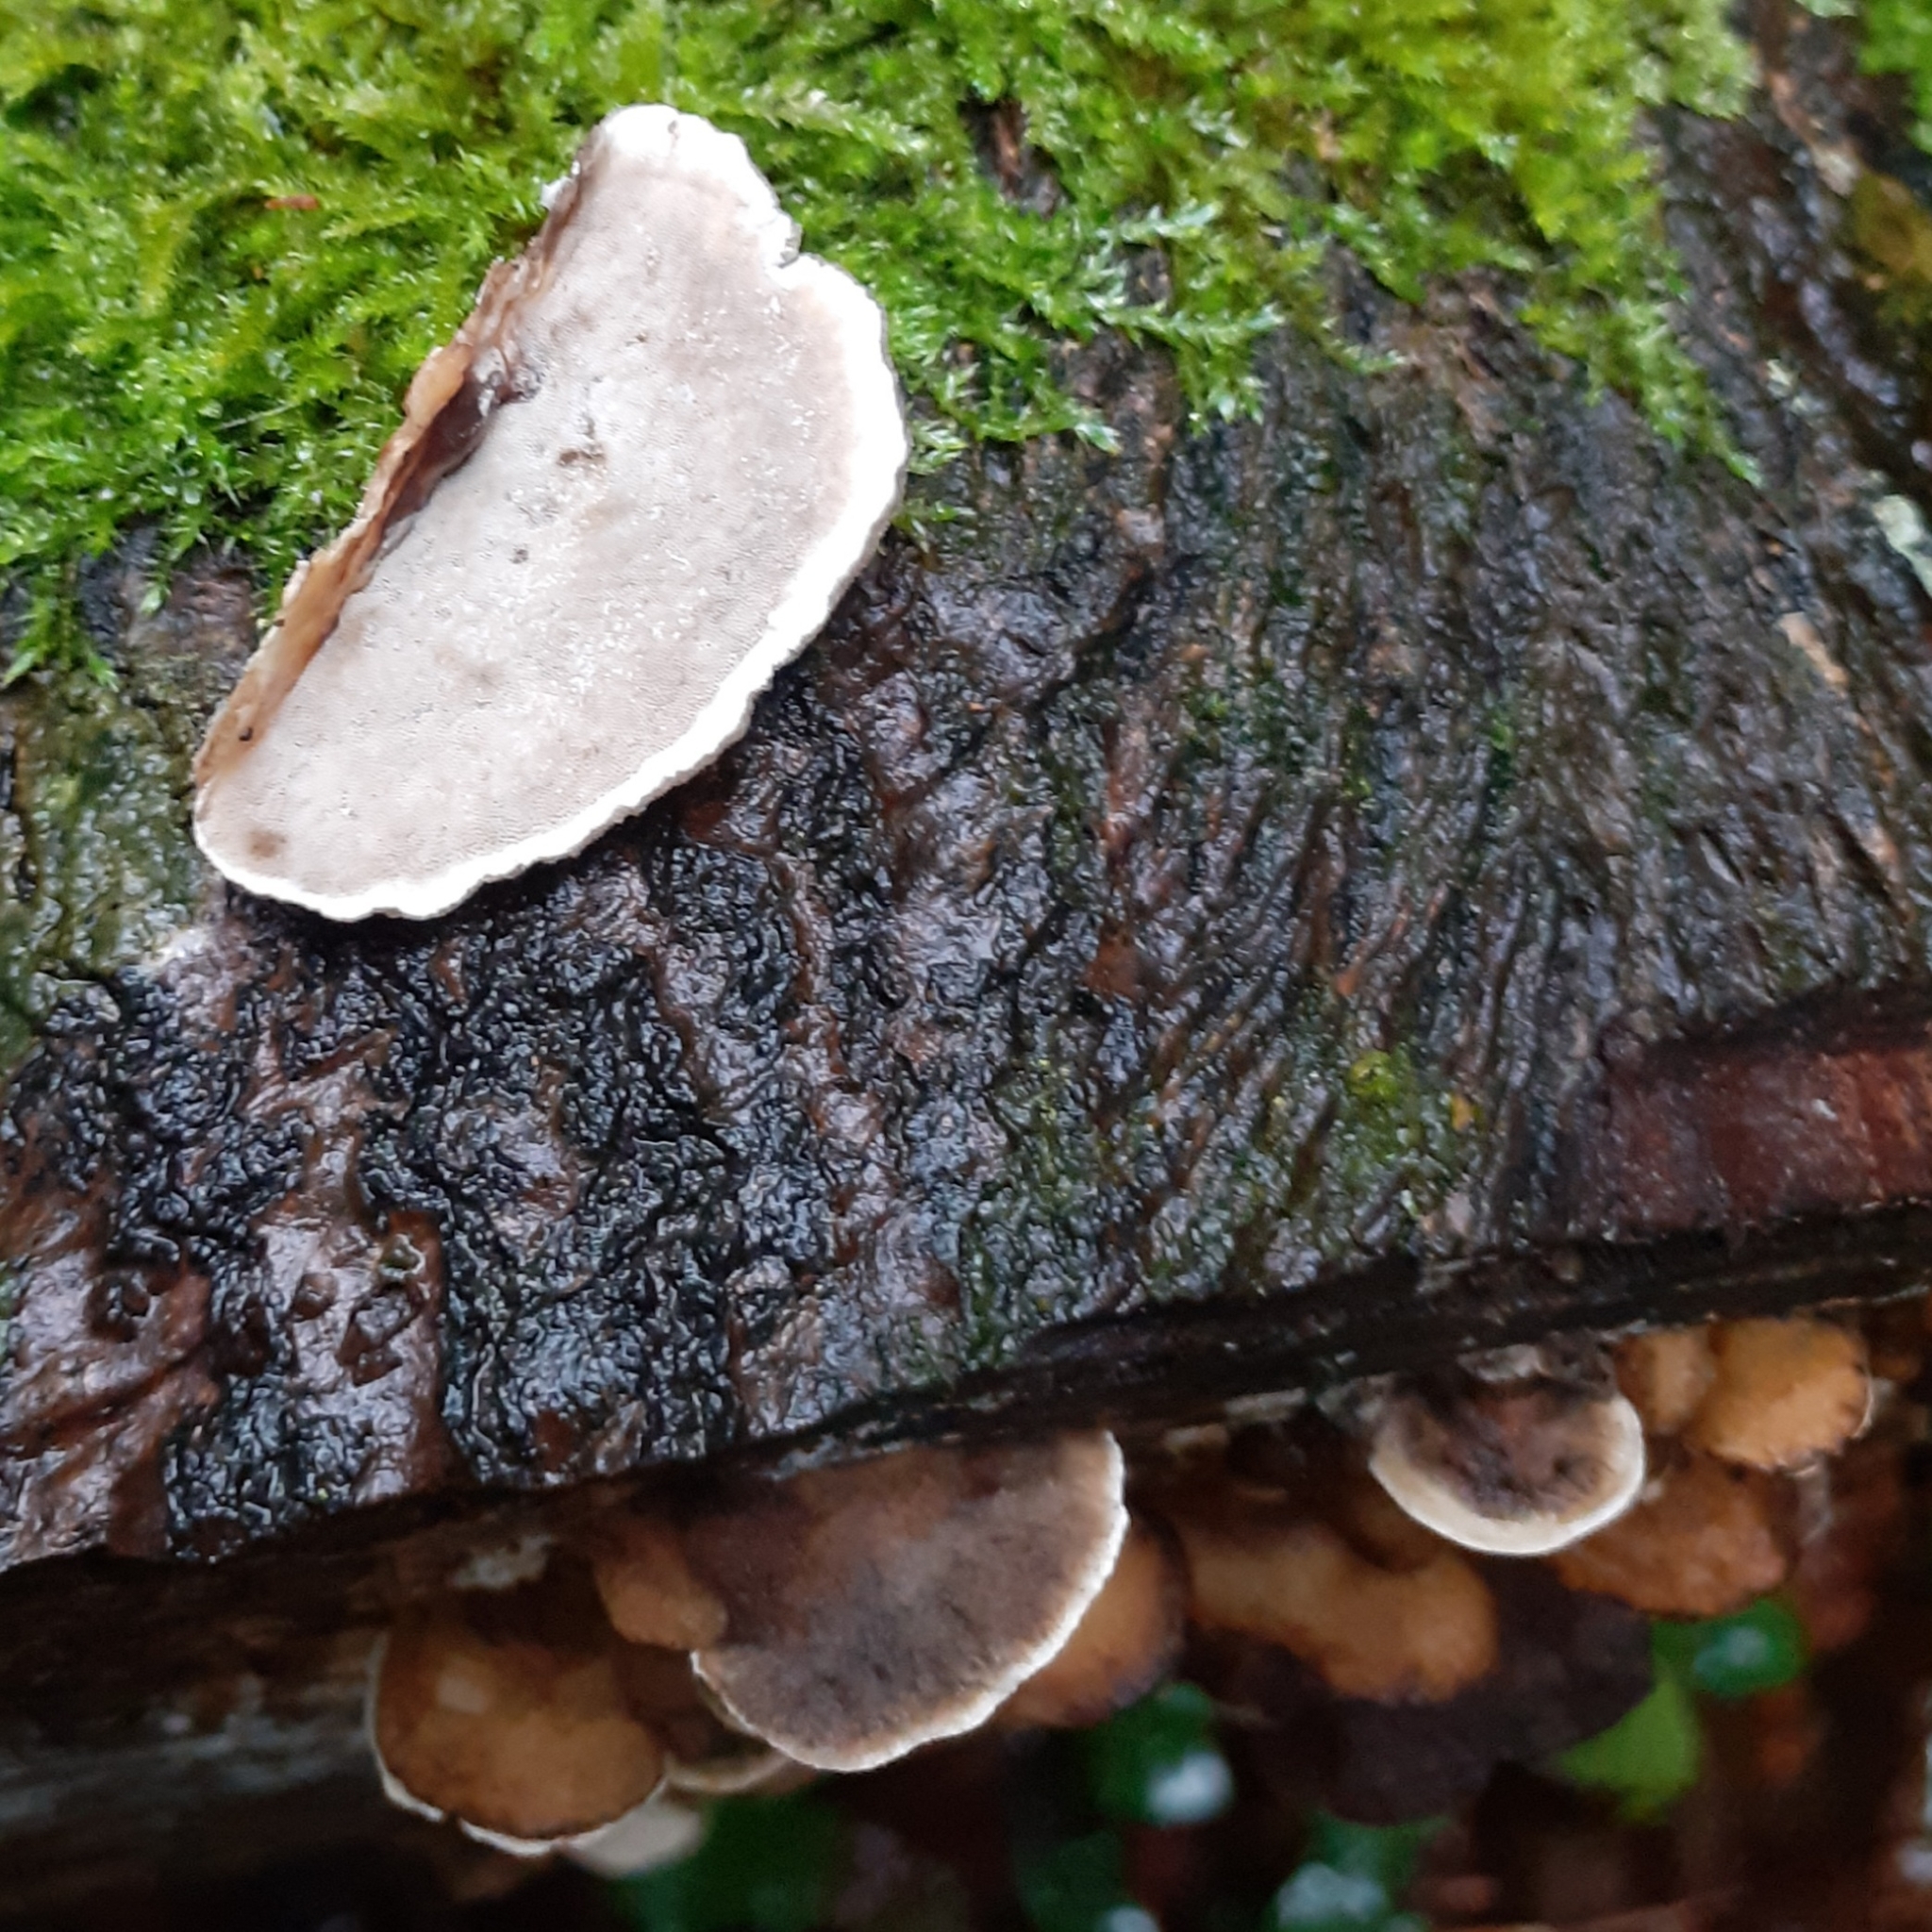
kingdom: Fungi
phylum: Basidiomycota
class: Agaricomycetes
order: Polyporales
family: Phanerochaetaceae
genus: Bjerkandera
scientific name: Bjerkandera adusta
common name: Smoky bracket
